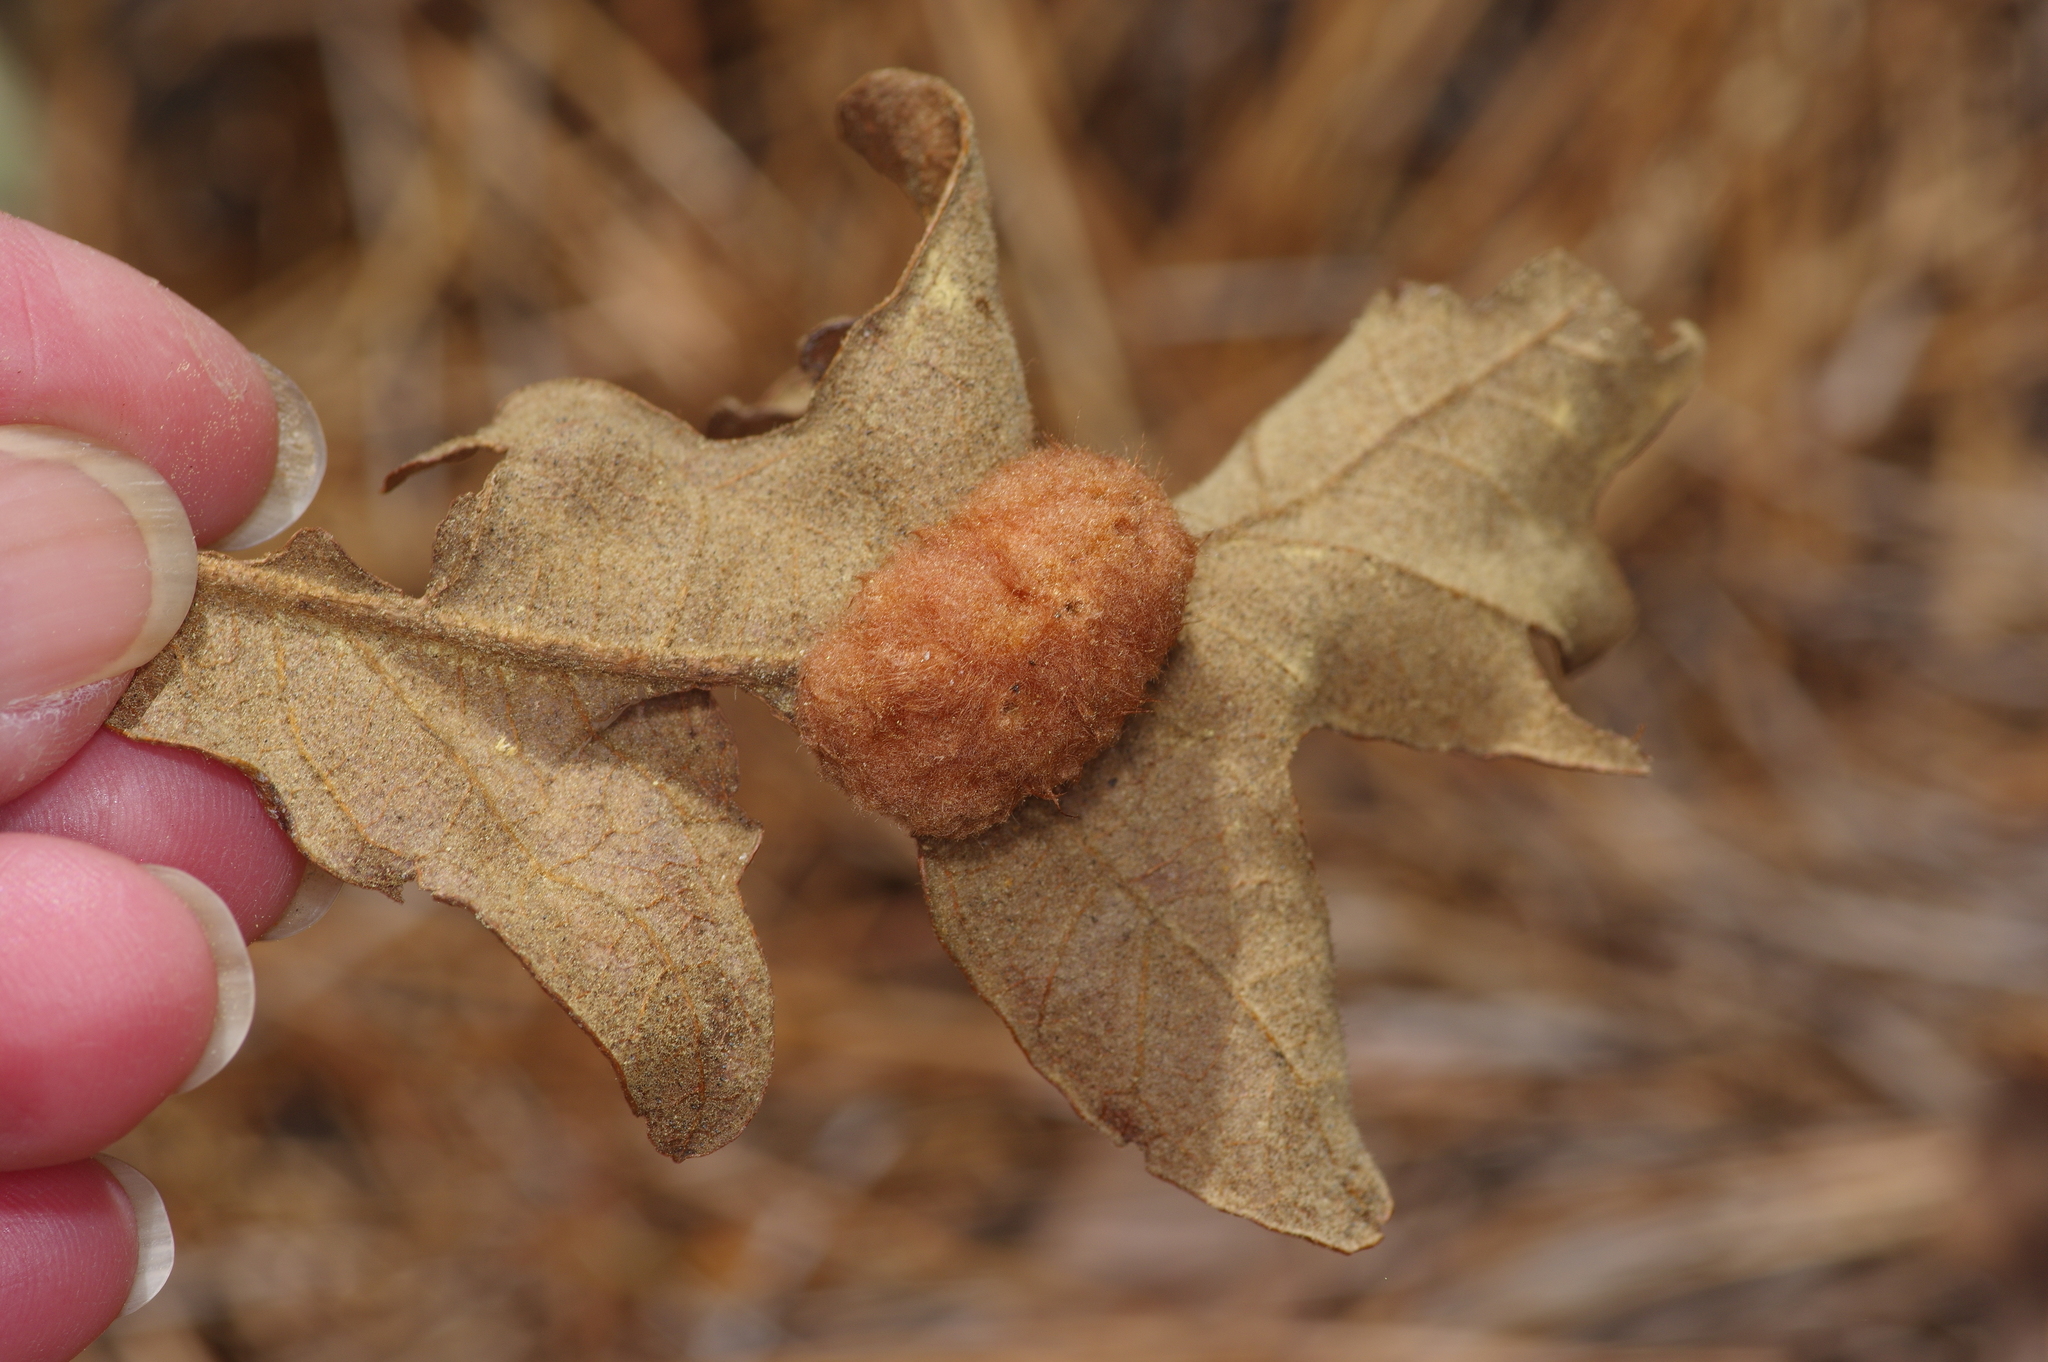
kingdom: Animalia
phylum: Arthropoda
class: Insecta
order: Hymenoptera
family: Cynipidae
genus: Andricus
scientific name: Andricus Druon pattoni
